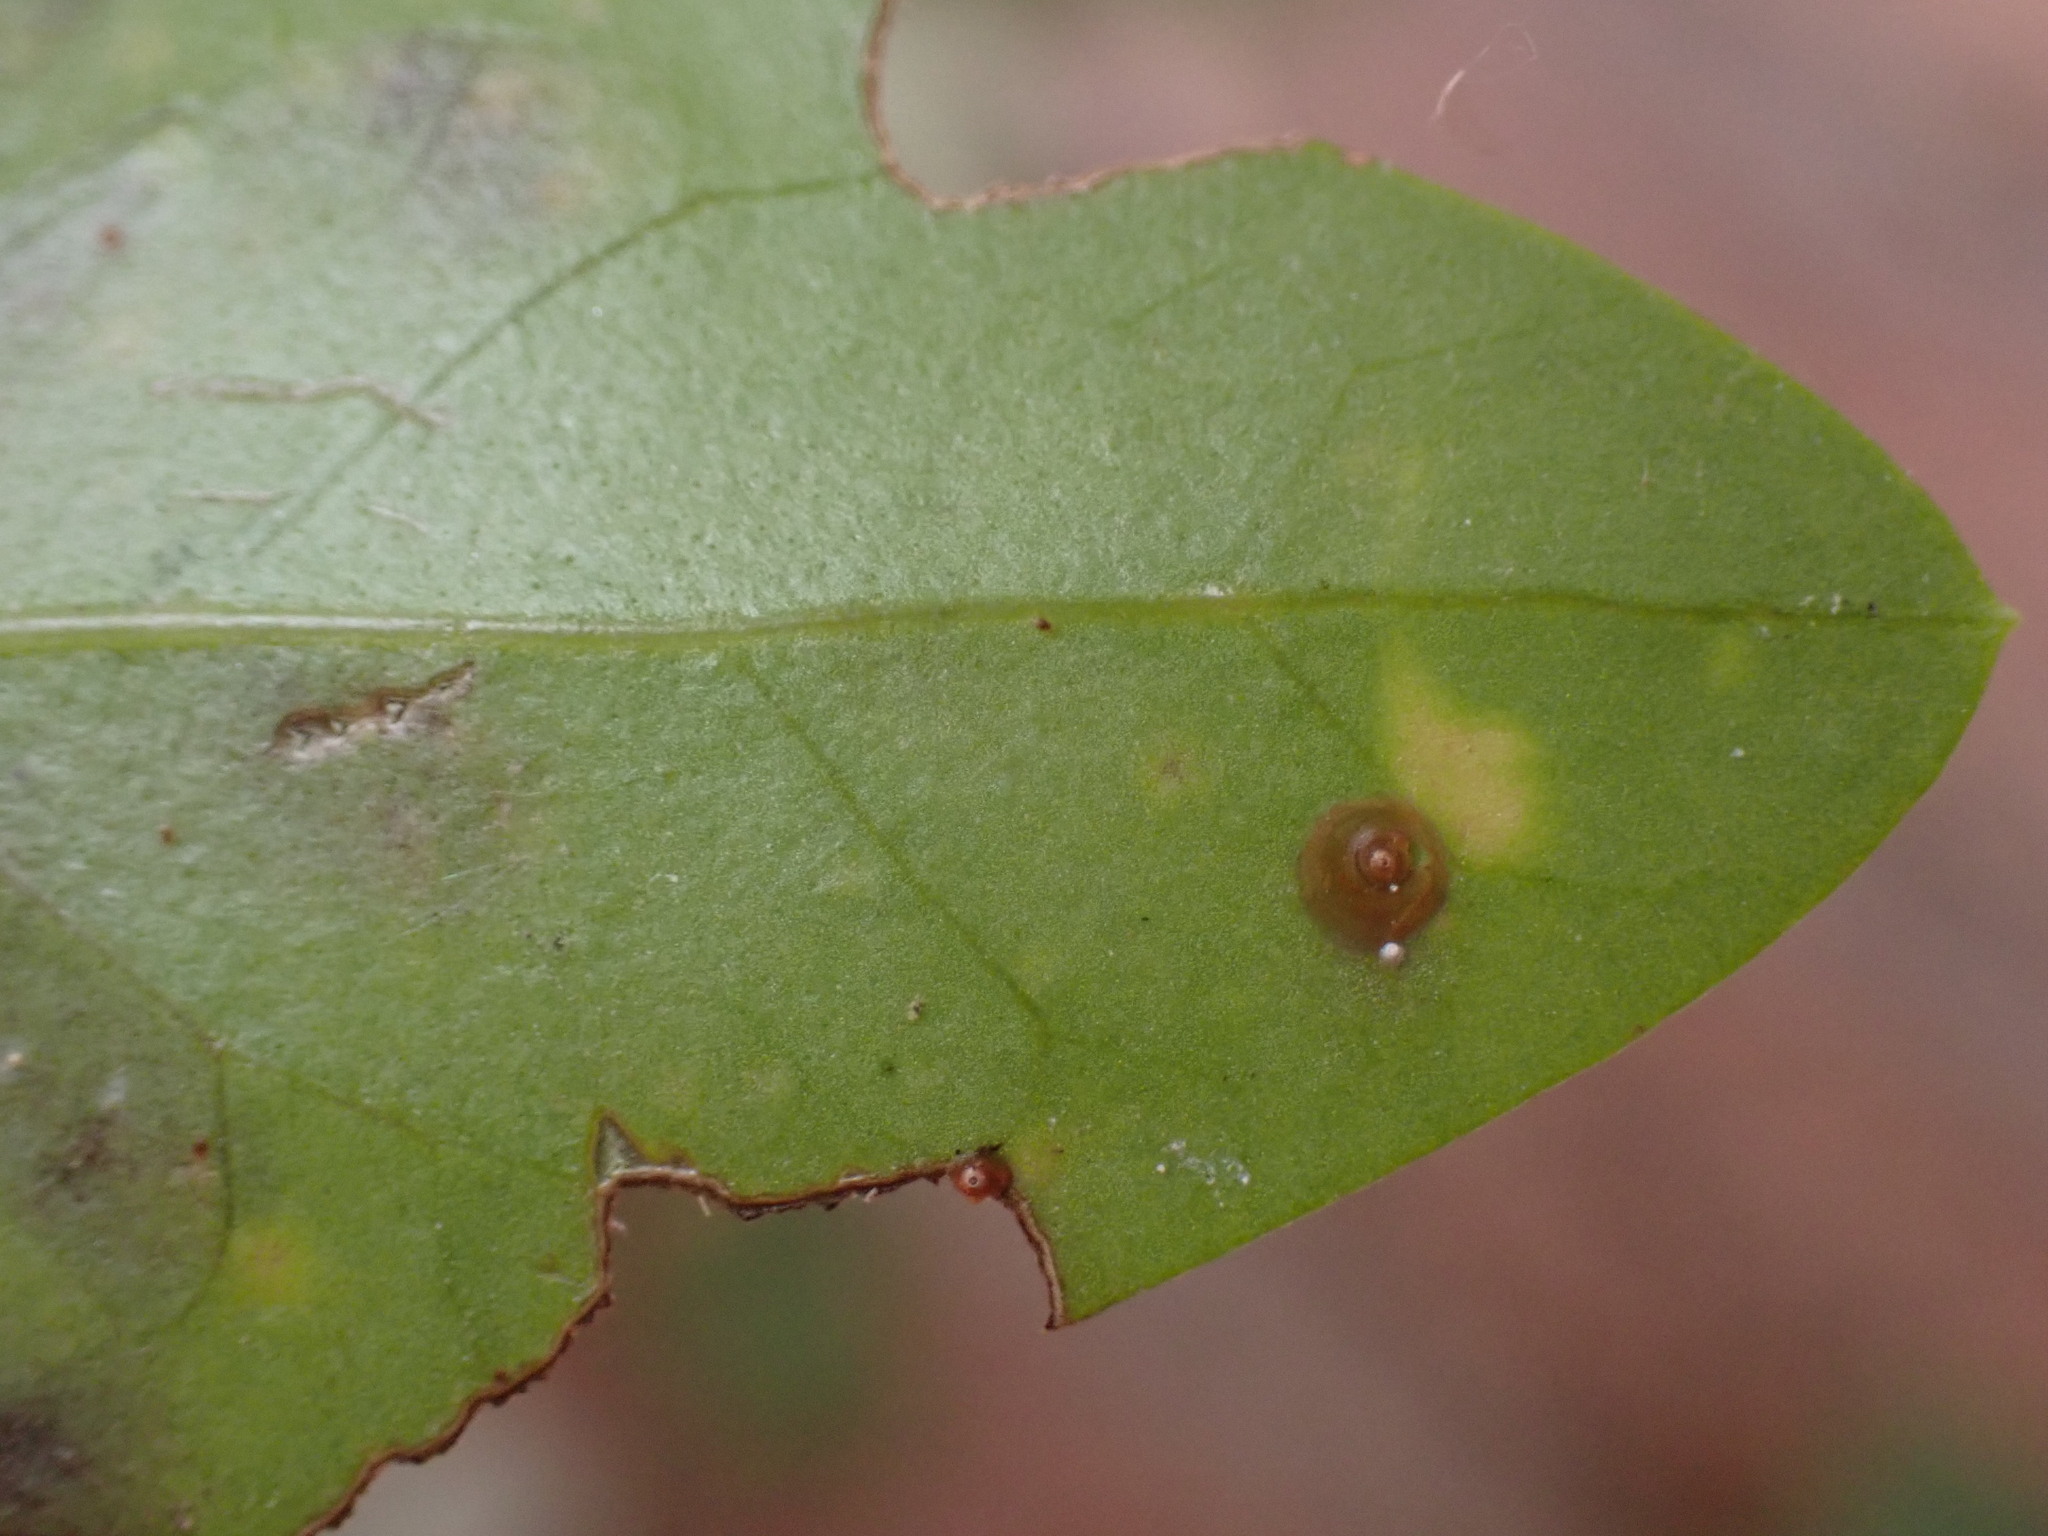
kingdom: Animalia
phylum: Arthropoda
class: Insecta
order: Hemiptera
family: Diaspididae
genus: Aonidiella
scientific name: Aonidiella aurantii
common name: California red scale
